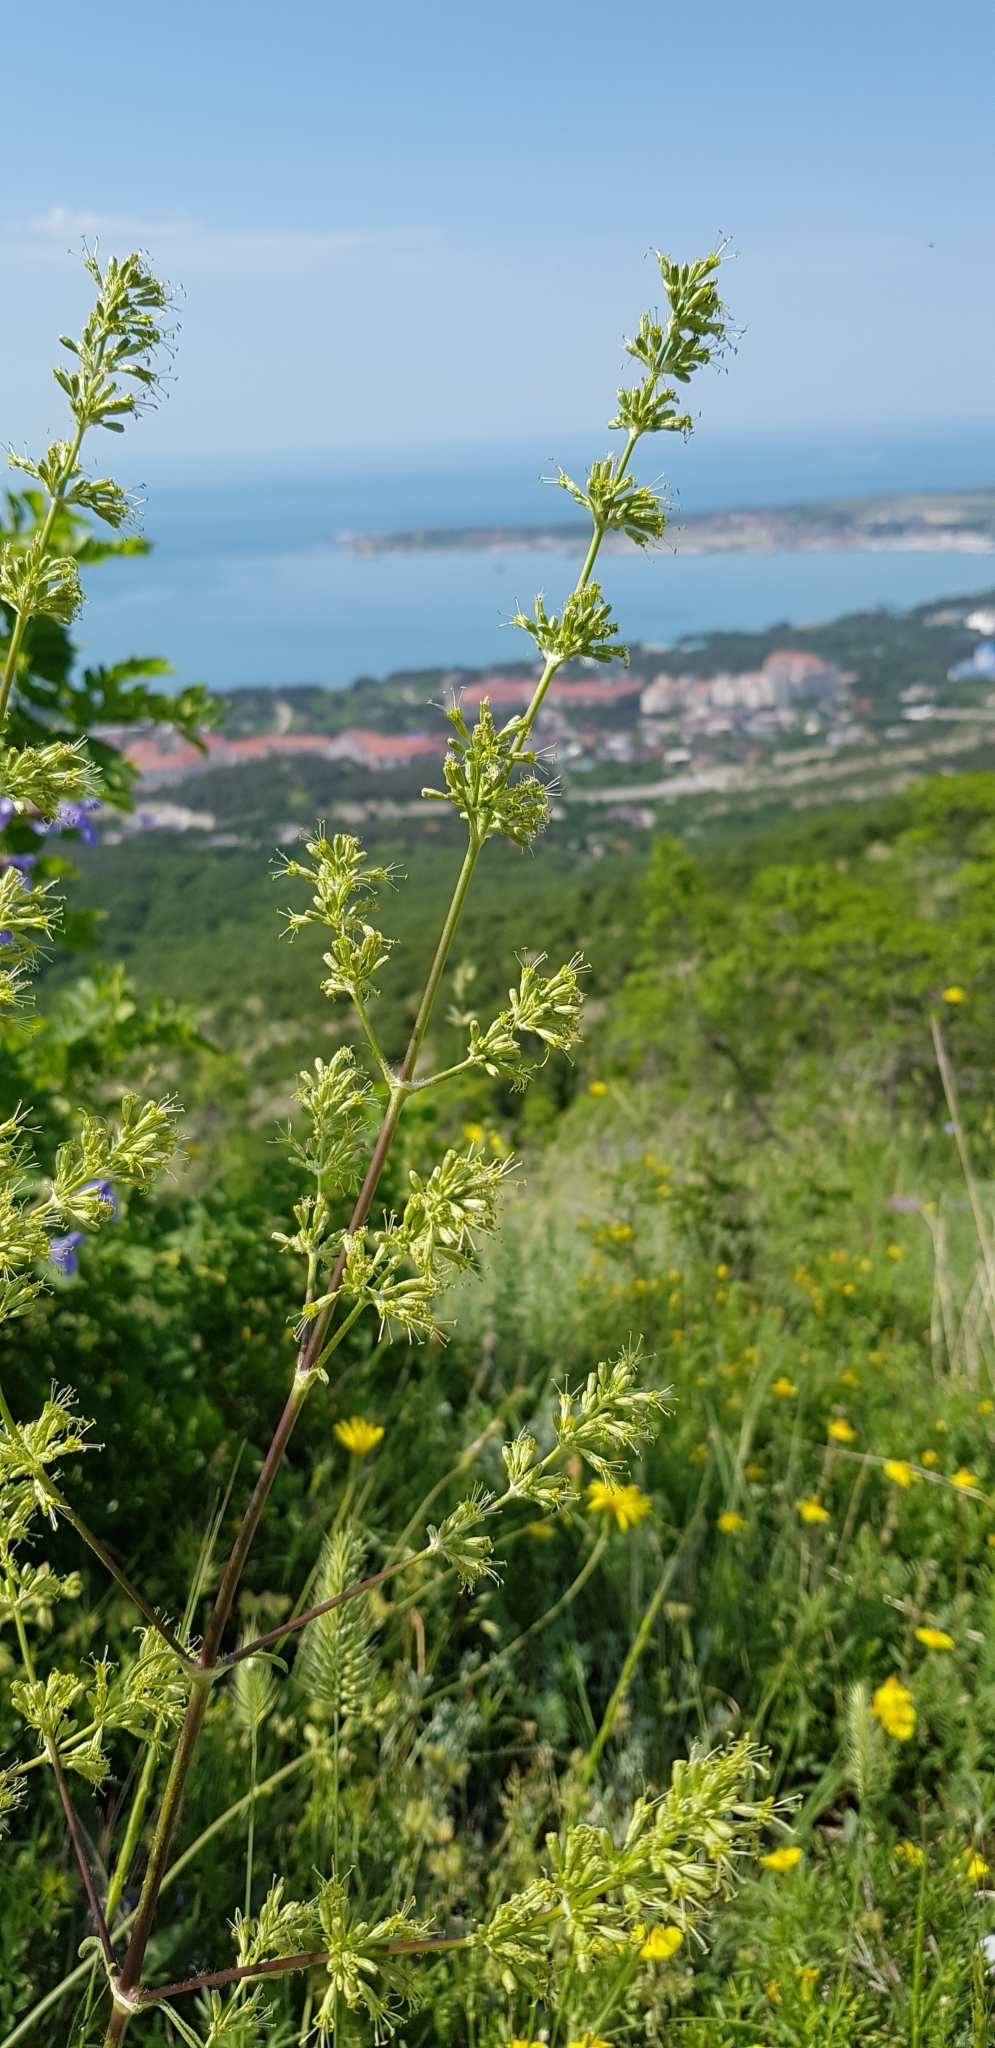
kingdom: Plantae
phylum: Tracheophyta
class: Magnoliopsida
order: Caryophyllales
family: Caryophyllaceae
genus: Silene
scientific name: Silene densiflora
